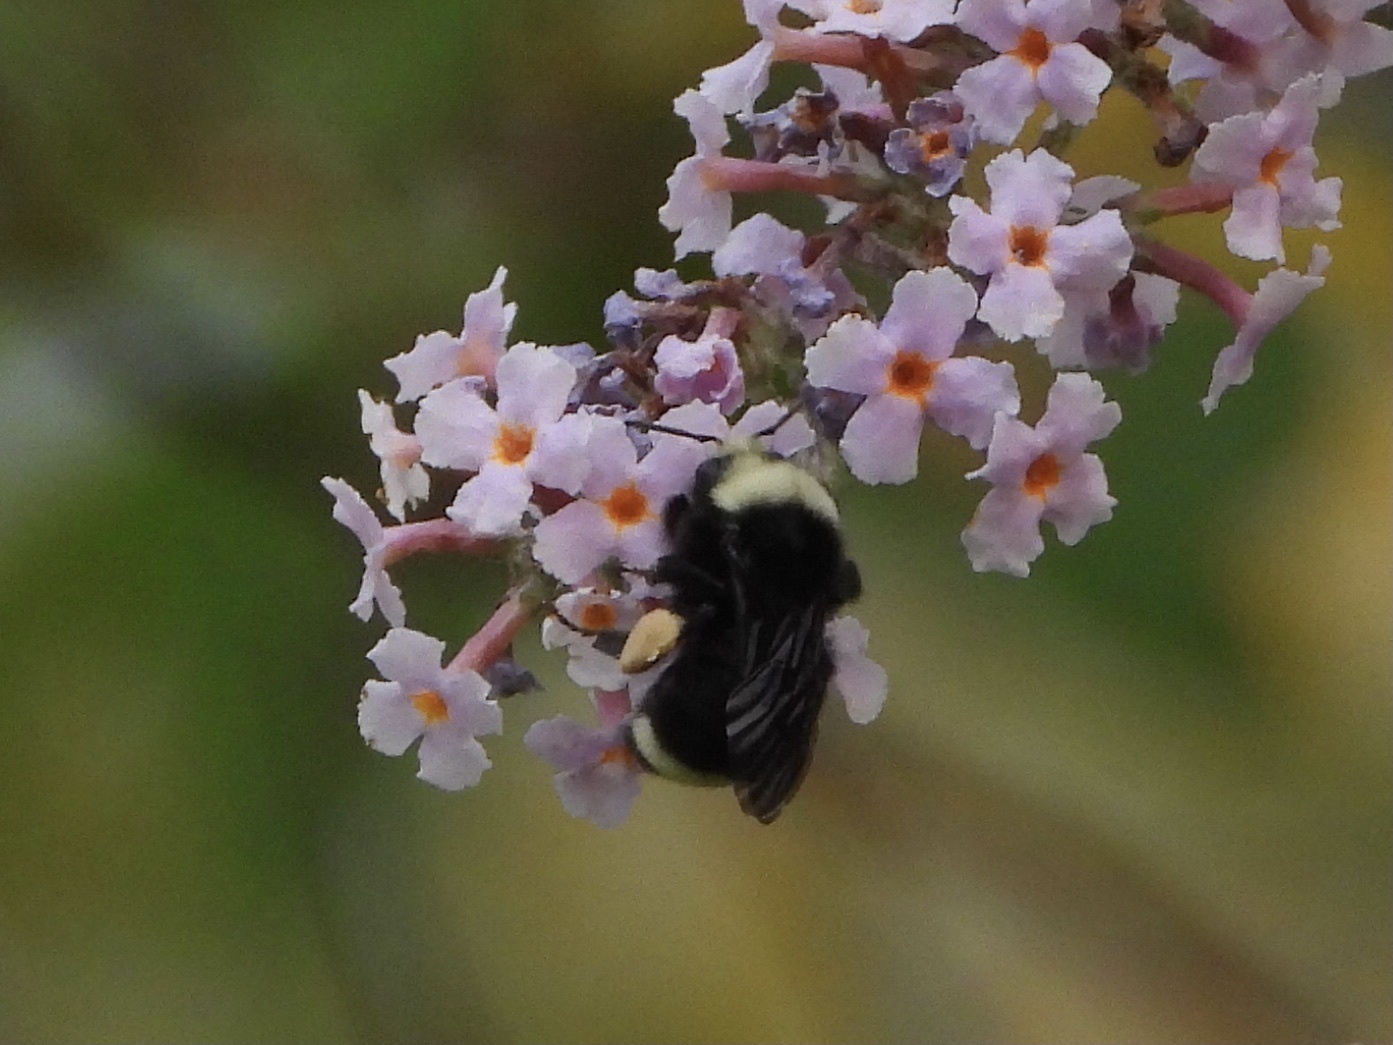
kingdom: Animalia
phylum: Arthropoda
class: Insecta
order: Hymenoptera
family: Apidae
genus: Bombus
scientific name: Bombus vosnesenskii
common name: Vosnesensky bumble bee
